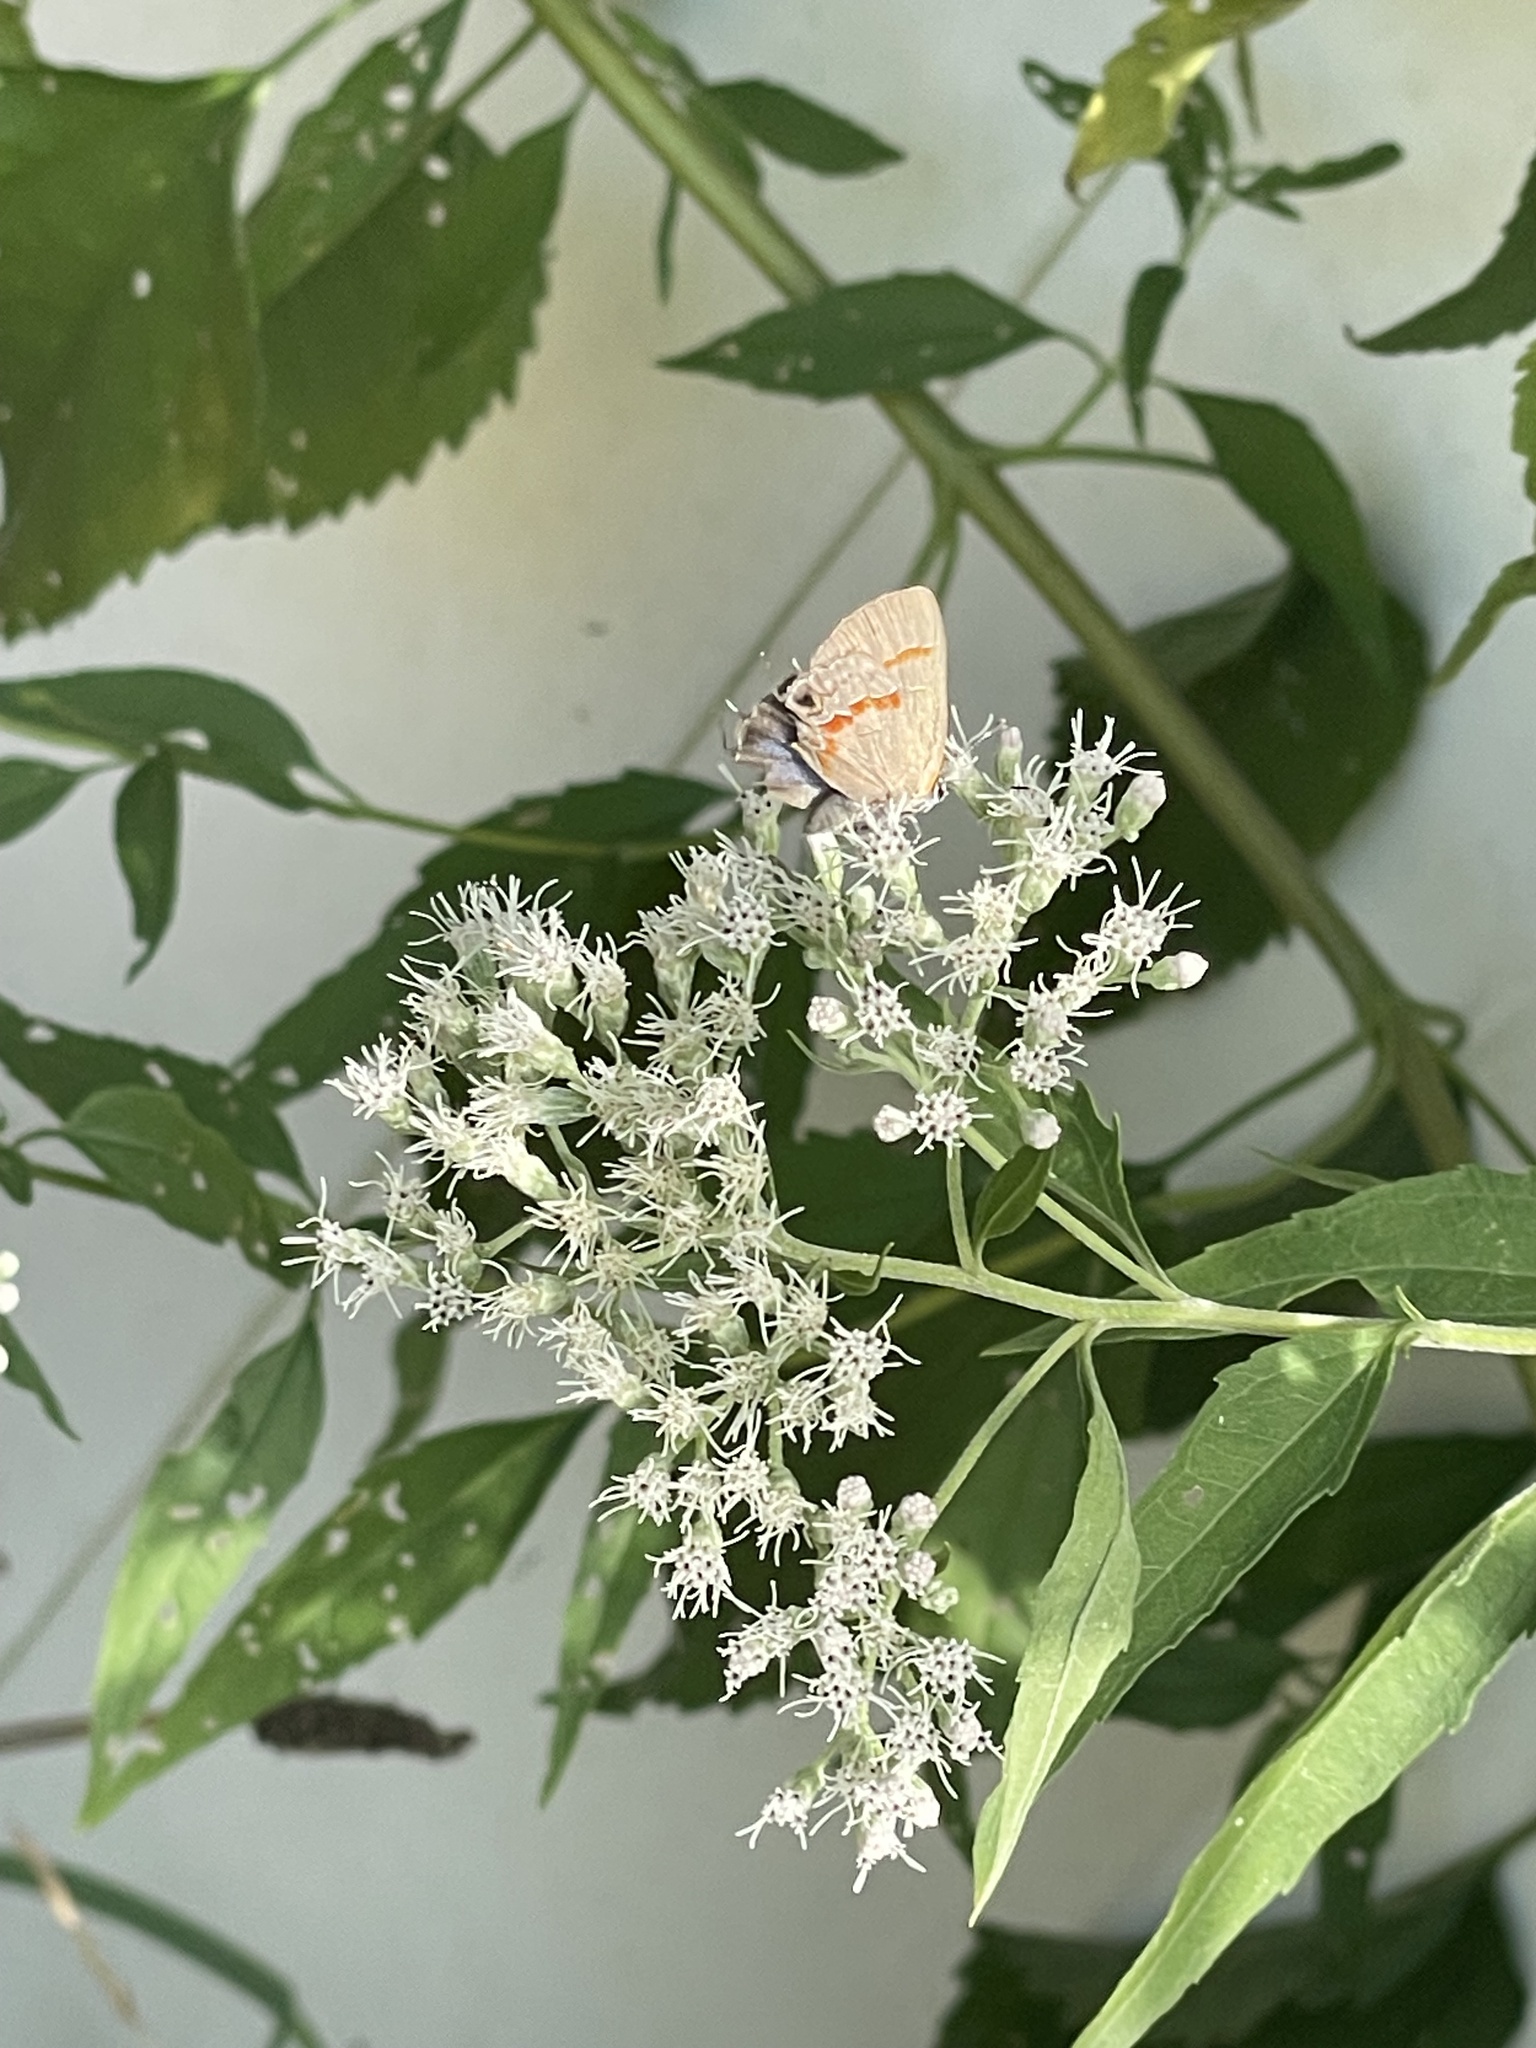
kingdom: Animalia
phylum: Arthropoda
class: Insecta
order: Lepidoptera
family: Lycaenidae
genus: Calycopis
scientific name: Calycopis cecrops
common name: Red-banded hairstreak
